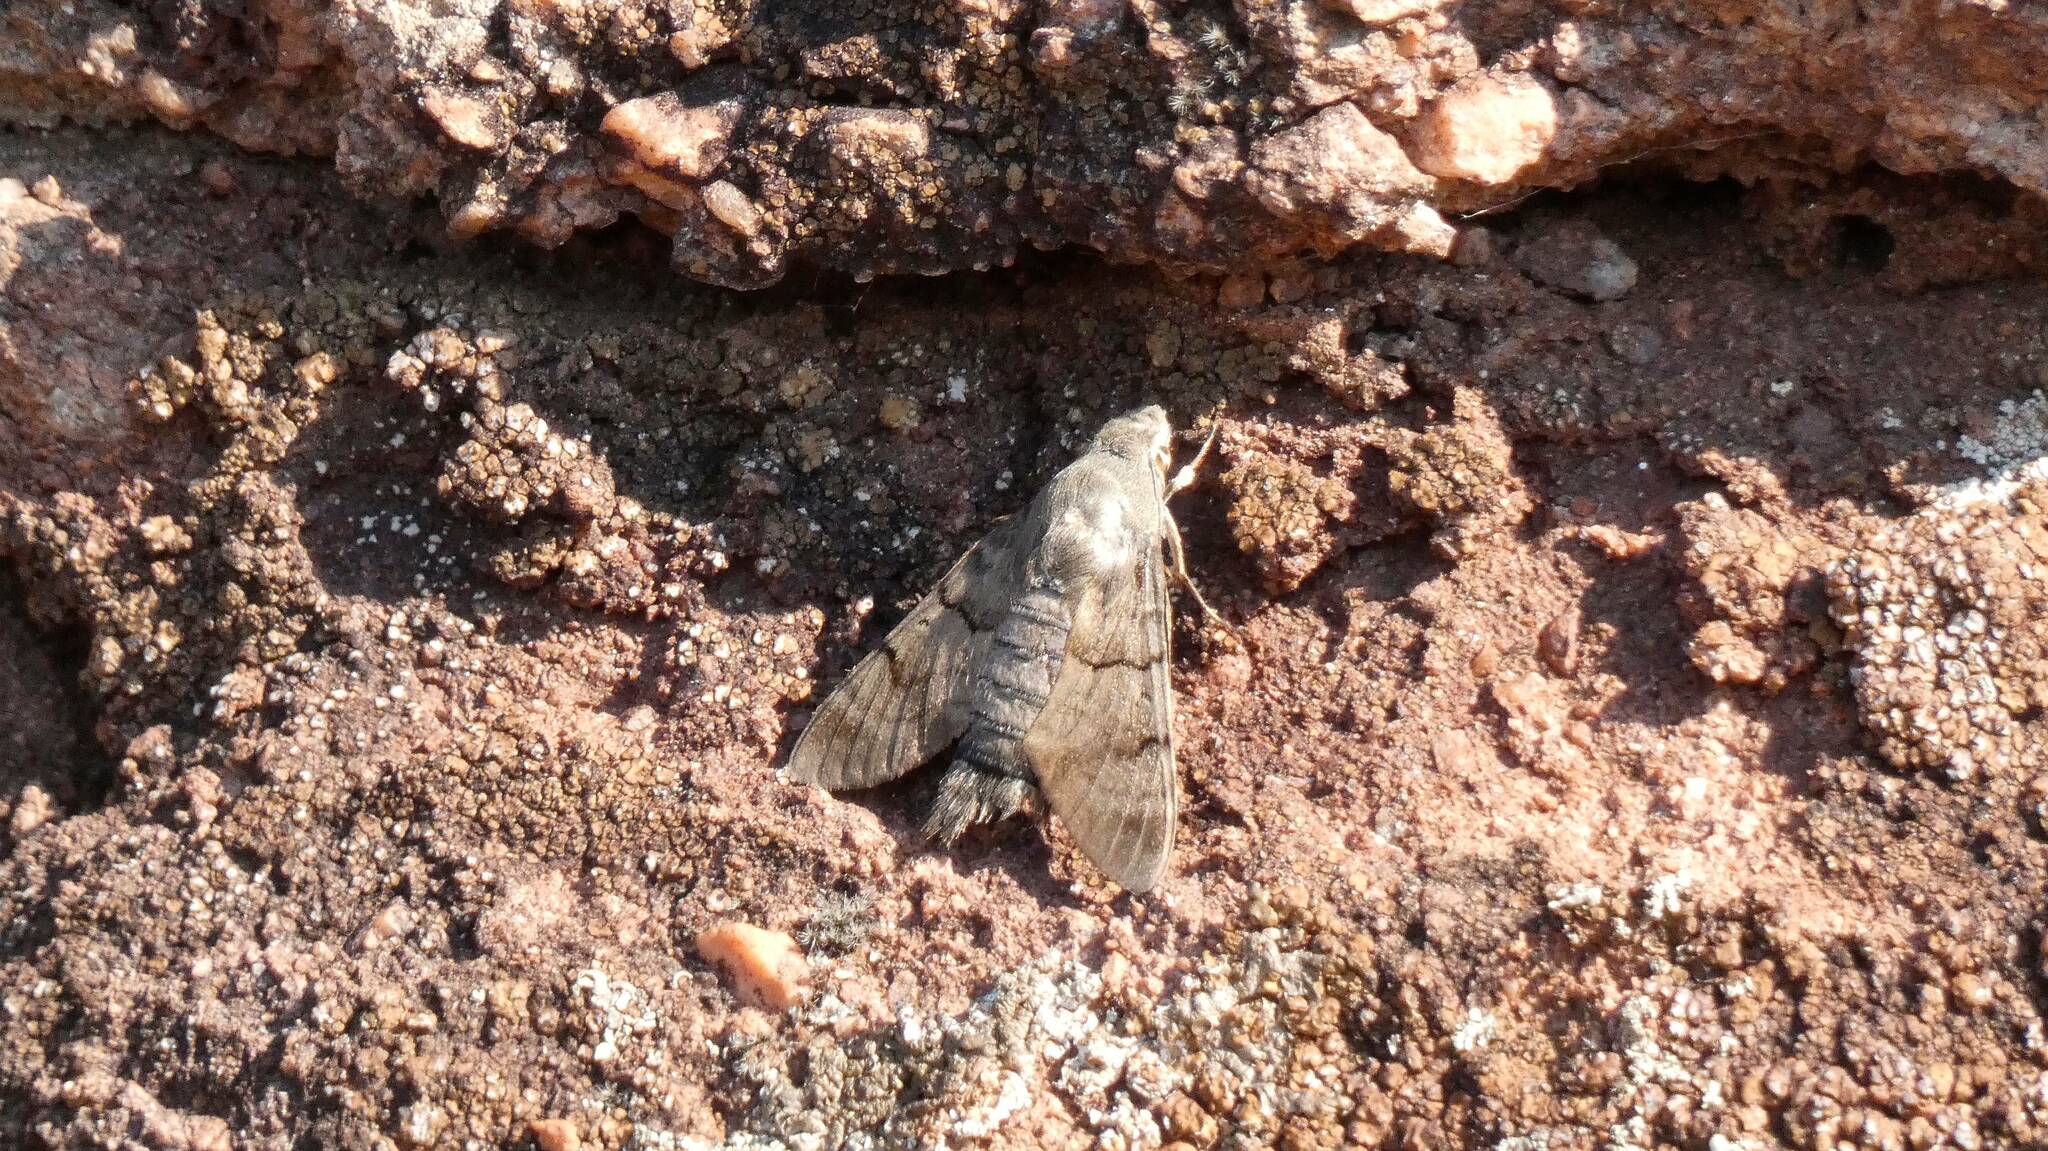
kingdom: Animalia
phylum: Arthropoda
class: Insecta
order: Lepidoptera
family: Sphingidae
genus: Macroglossum
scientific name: Macroglossum stellatarum
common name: Humming-bird hawk-moth
